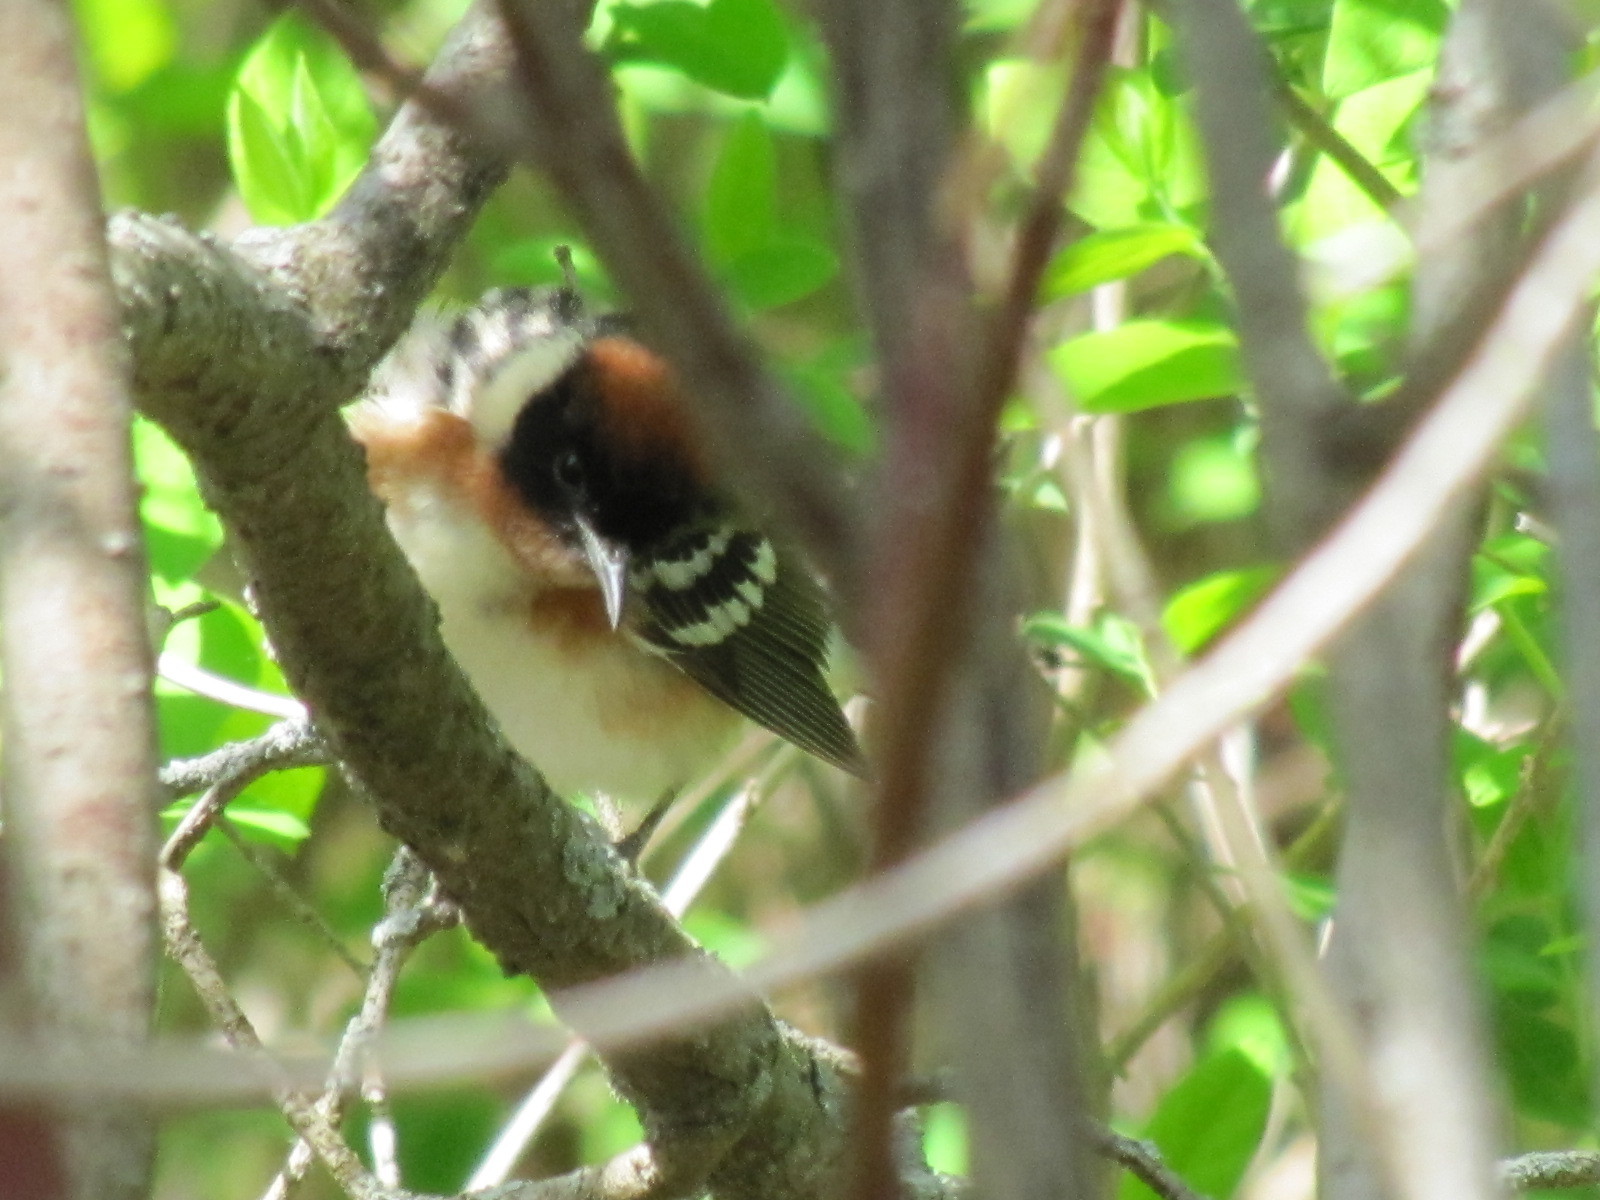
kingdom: Animalia
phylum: Chordata
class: Aves
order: Passeriformes
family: Parulidae
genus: Setophaga
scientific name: Setophaga castanea
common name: Bay-breasted warbler
